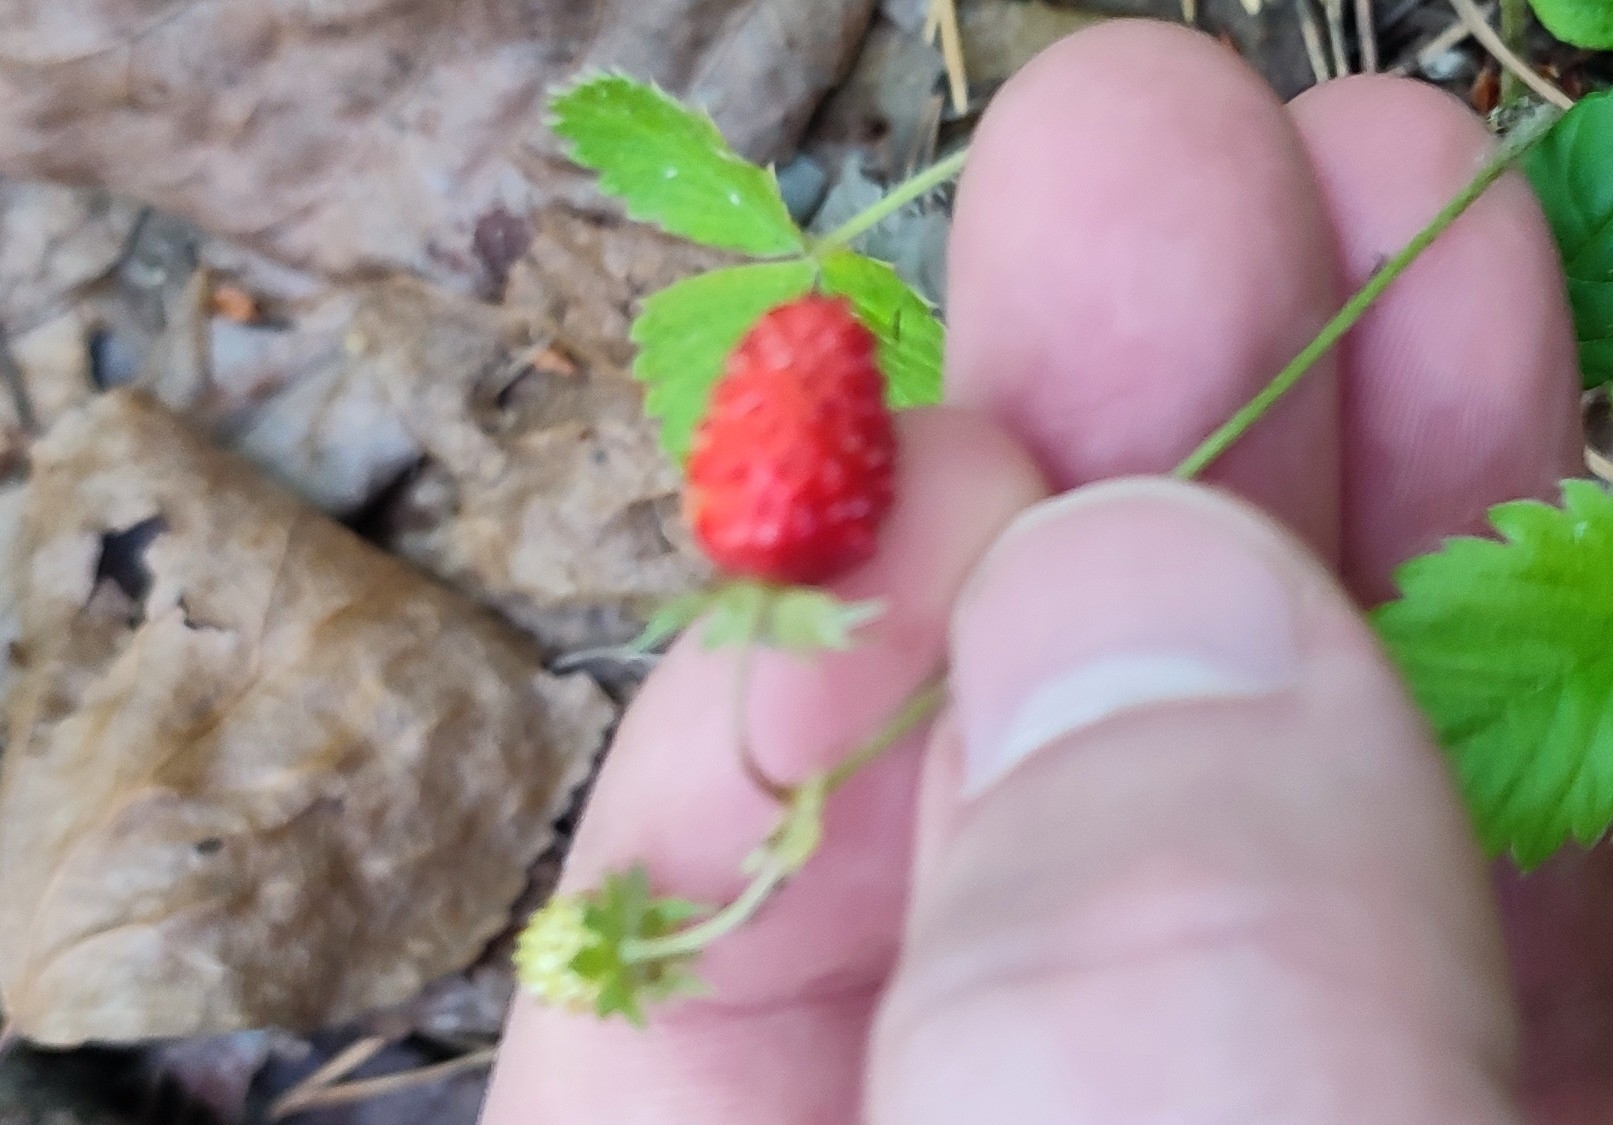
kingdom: Plantae
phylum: Tracheophyta
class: Magnoliopsida
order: Rosales
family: Rosaceae
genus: Fragaria
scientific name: Fragaria vesca
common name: Wild strawberry
